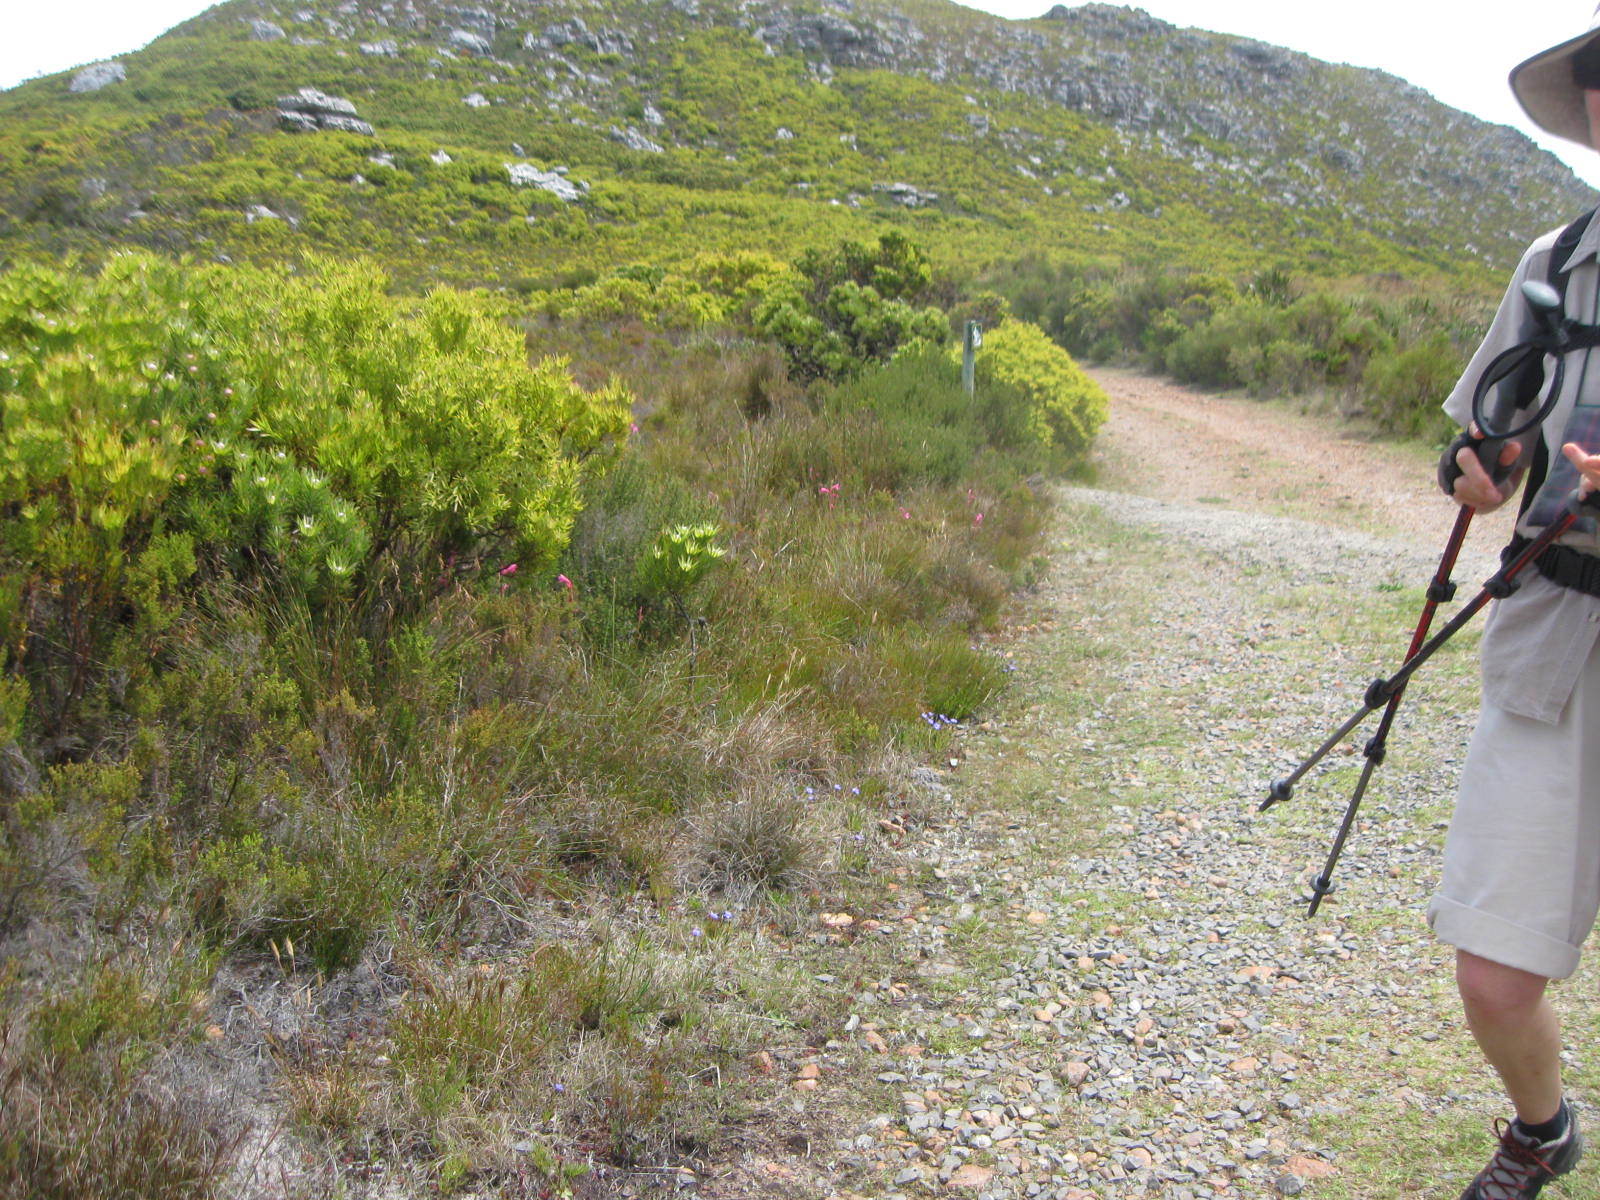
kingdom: Plantae
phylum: Tracheophyta
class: Liliopsida
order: Asparagales
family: Iridaceae
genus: Watsonia
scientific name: Watsonia coccinea
